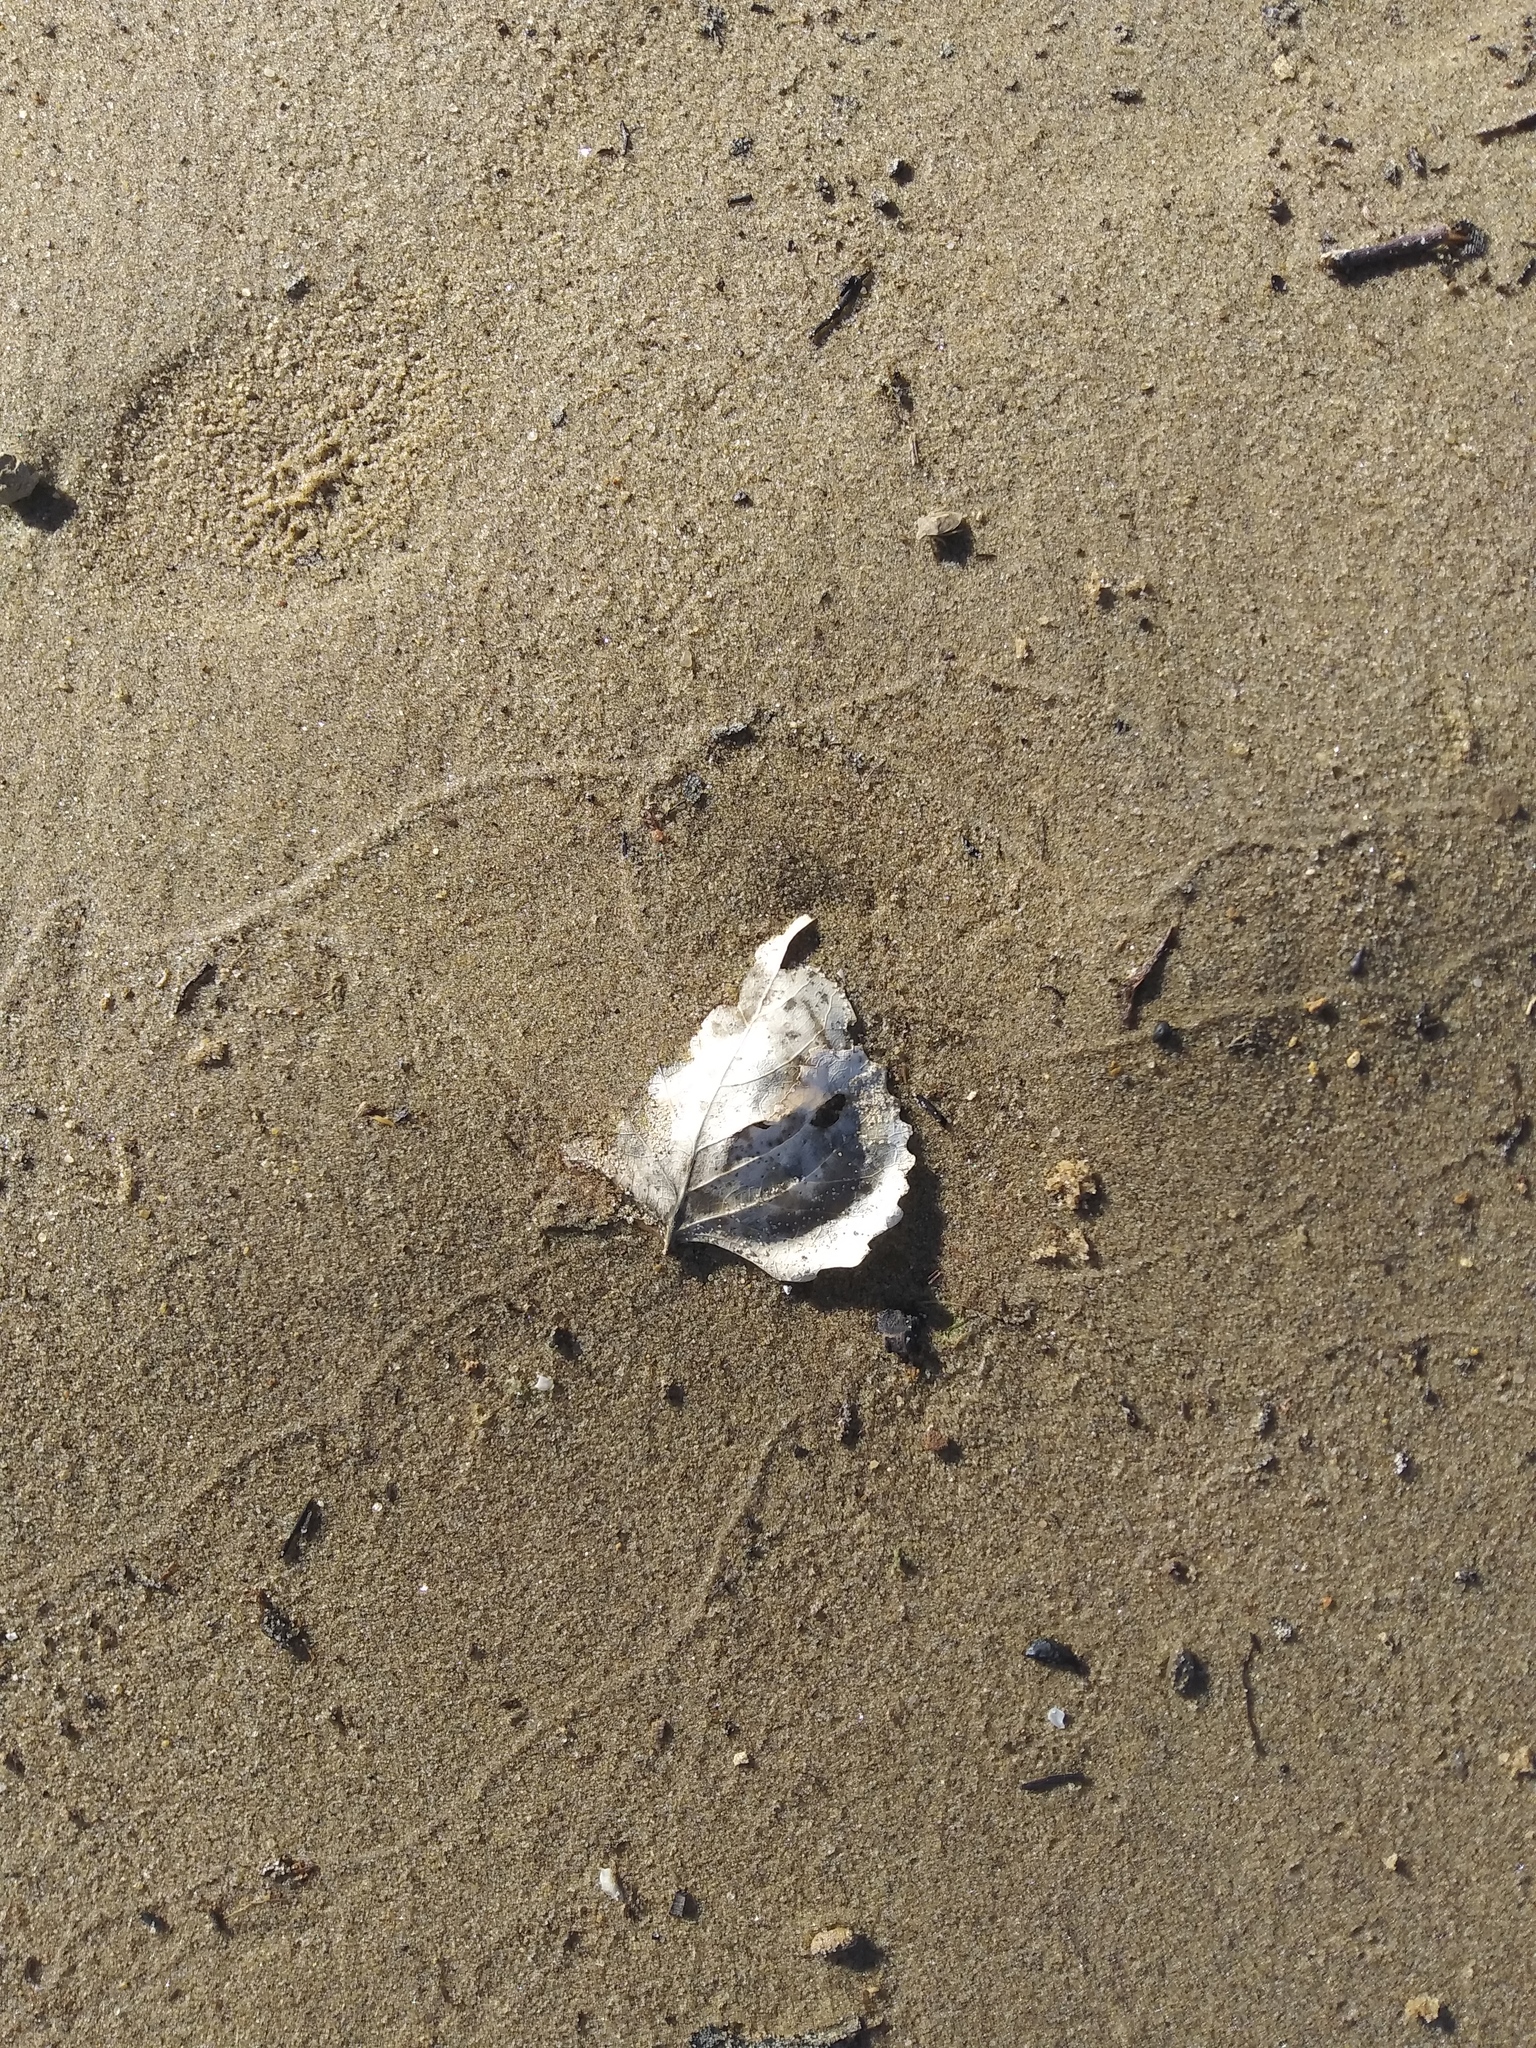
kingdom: Plantae
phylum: Tracheophyta
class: Magnoliopsida
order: Malpighiales
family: Salicaceae
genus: Populus
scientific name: Populus deltoides
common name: Eastern cottonwood
